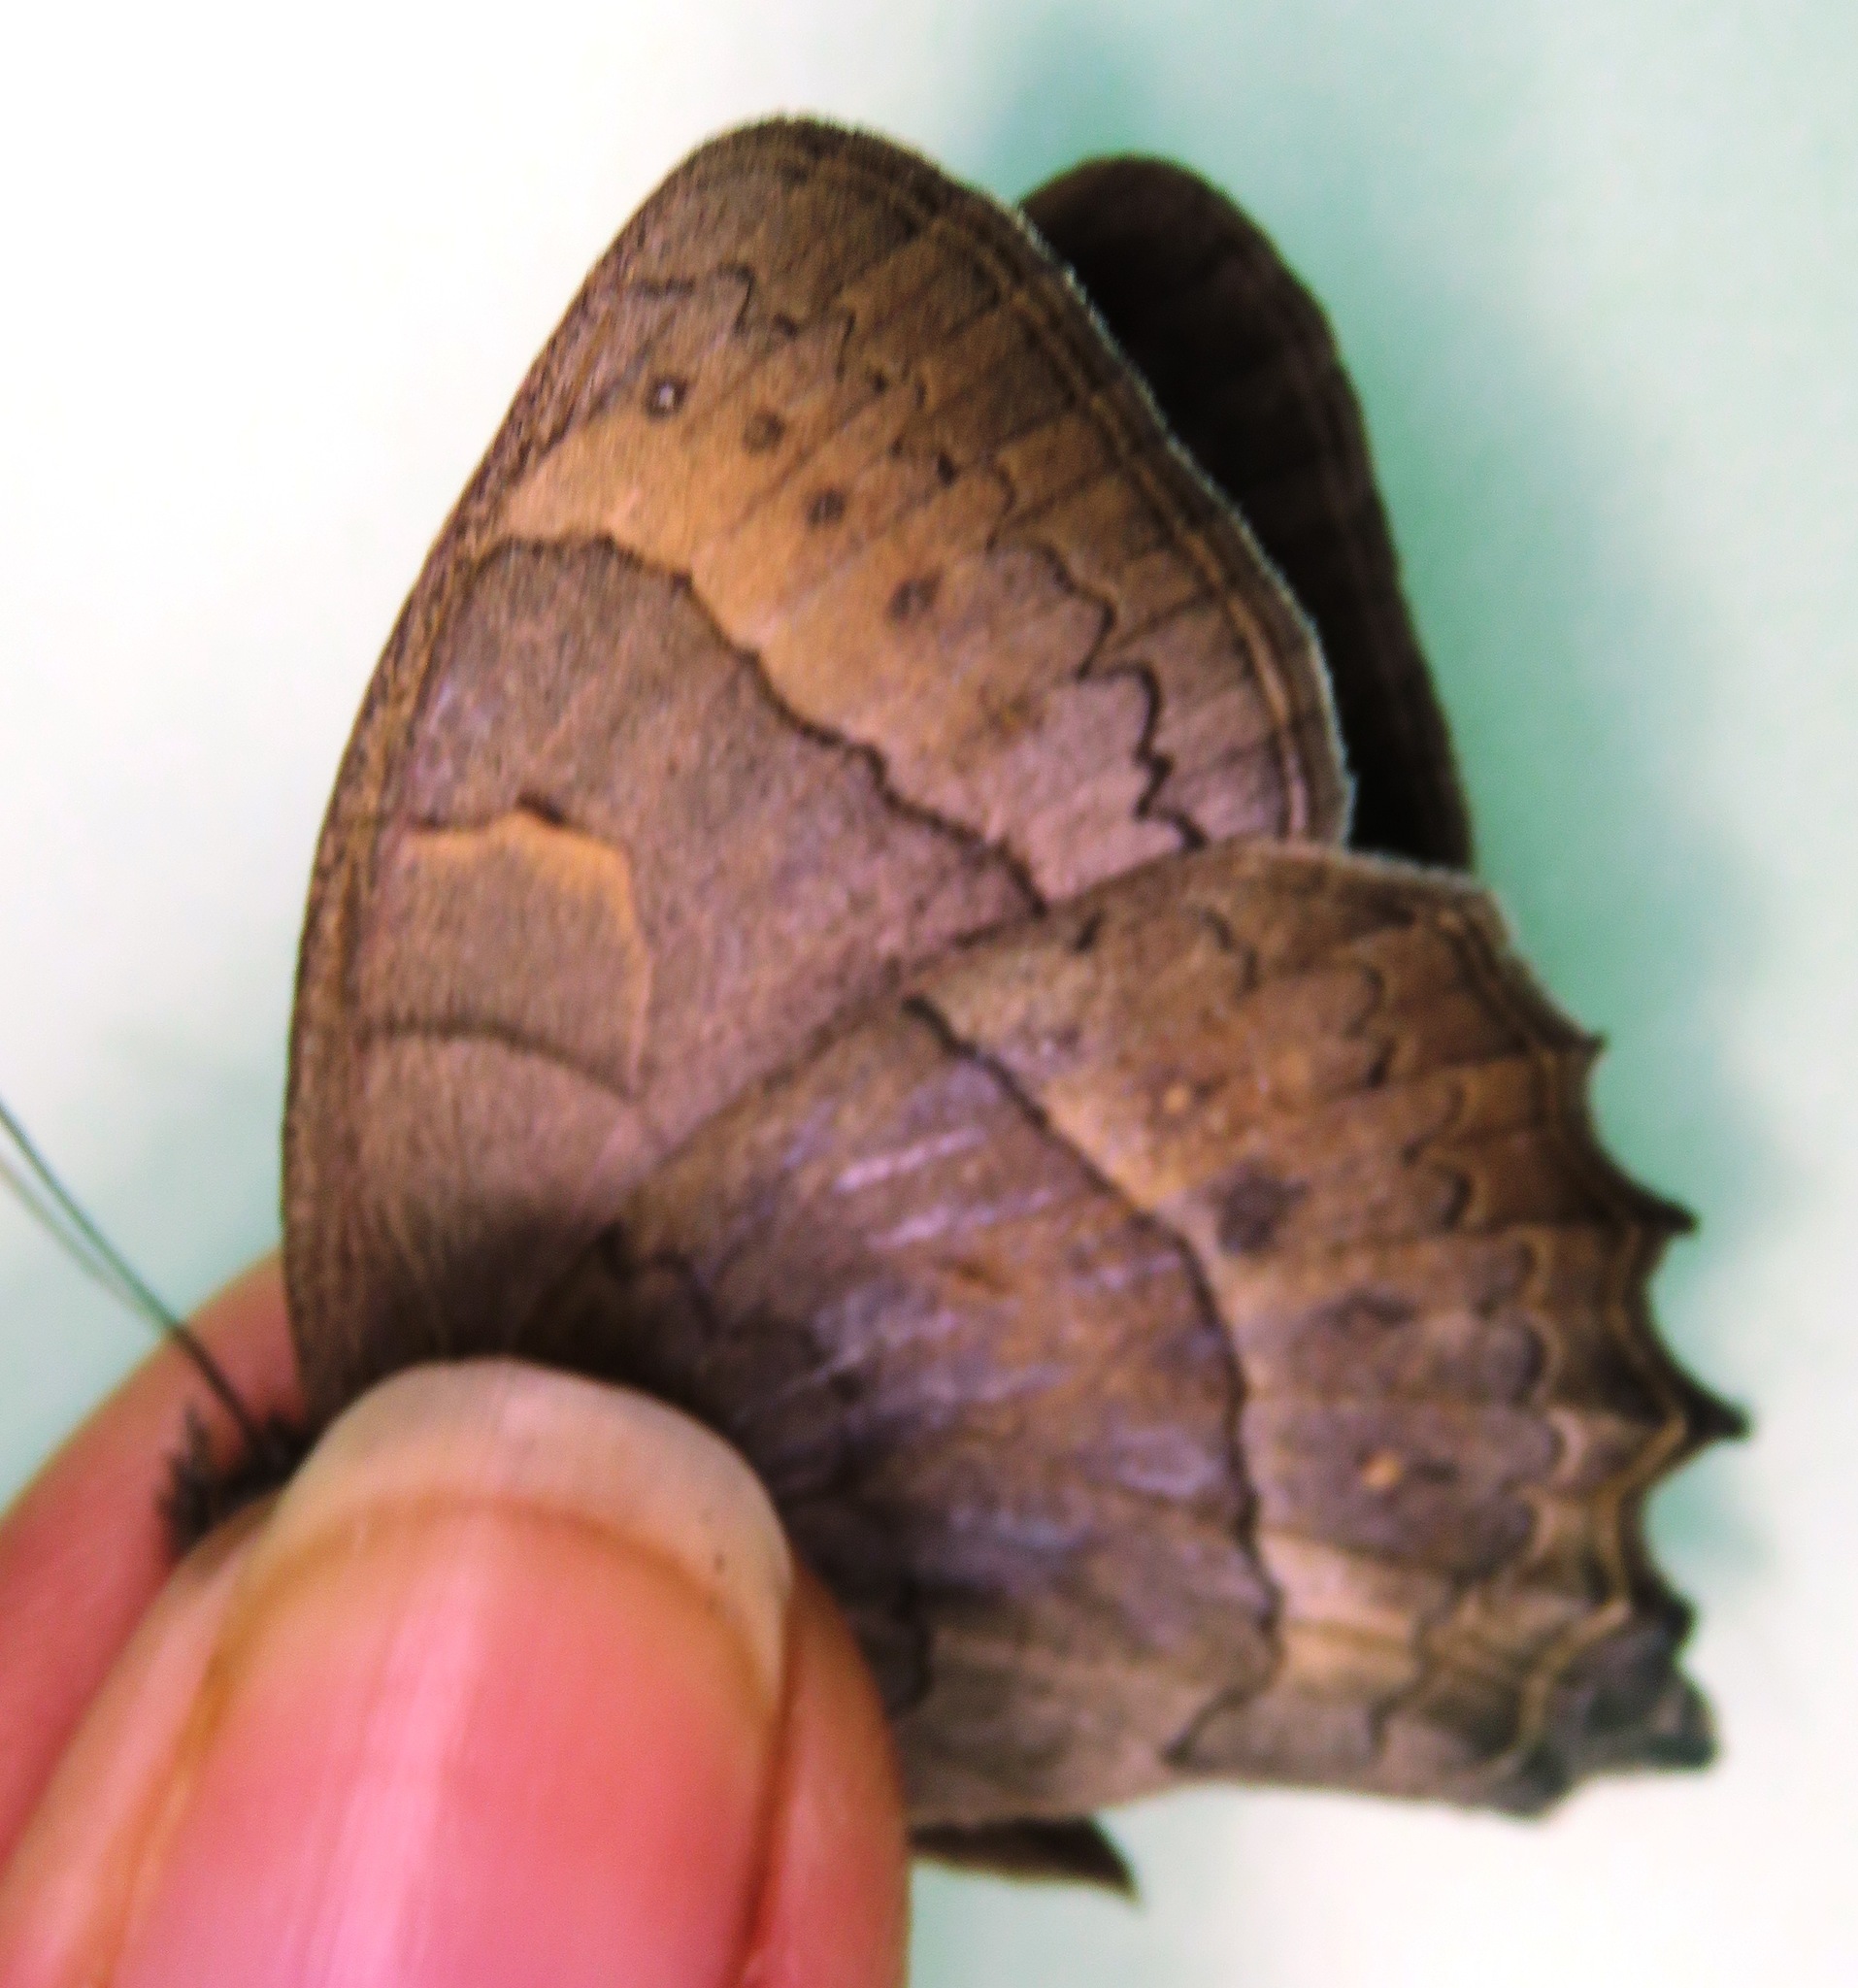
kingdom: Animalia
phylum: Arthropoda
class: Insecta
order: Lepidoptera
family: Nymphalidae
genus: Taygetina
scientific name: Taygetina kerea
